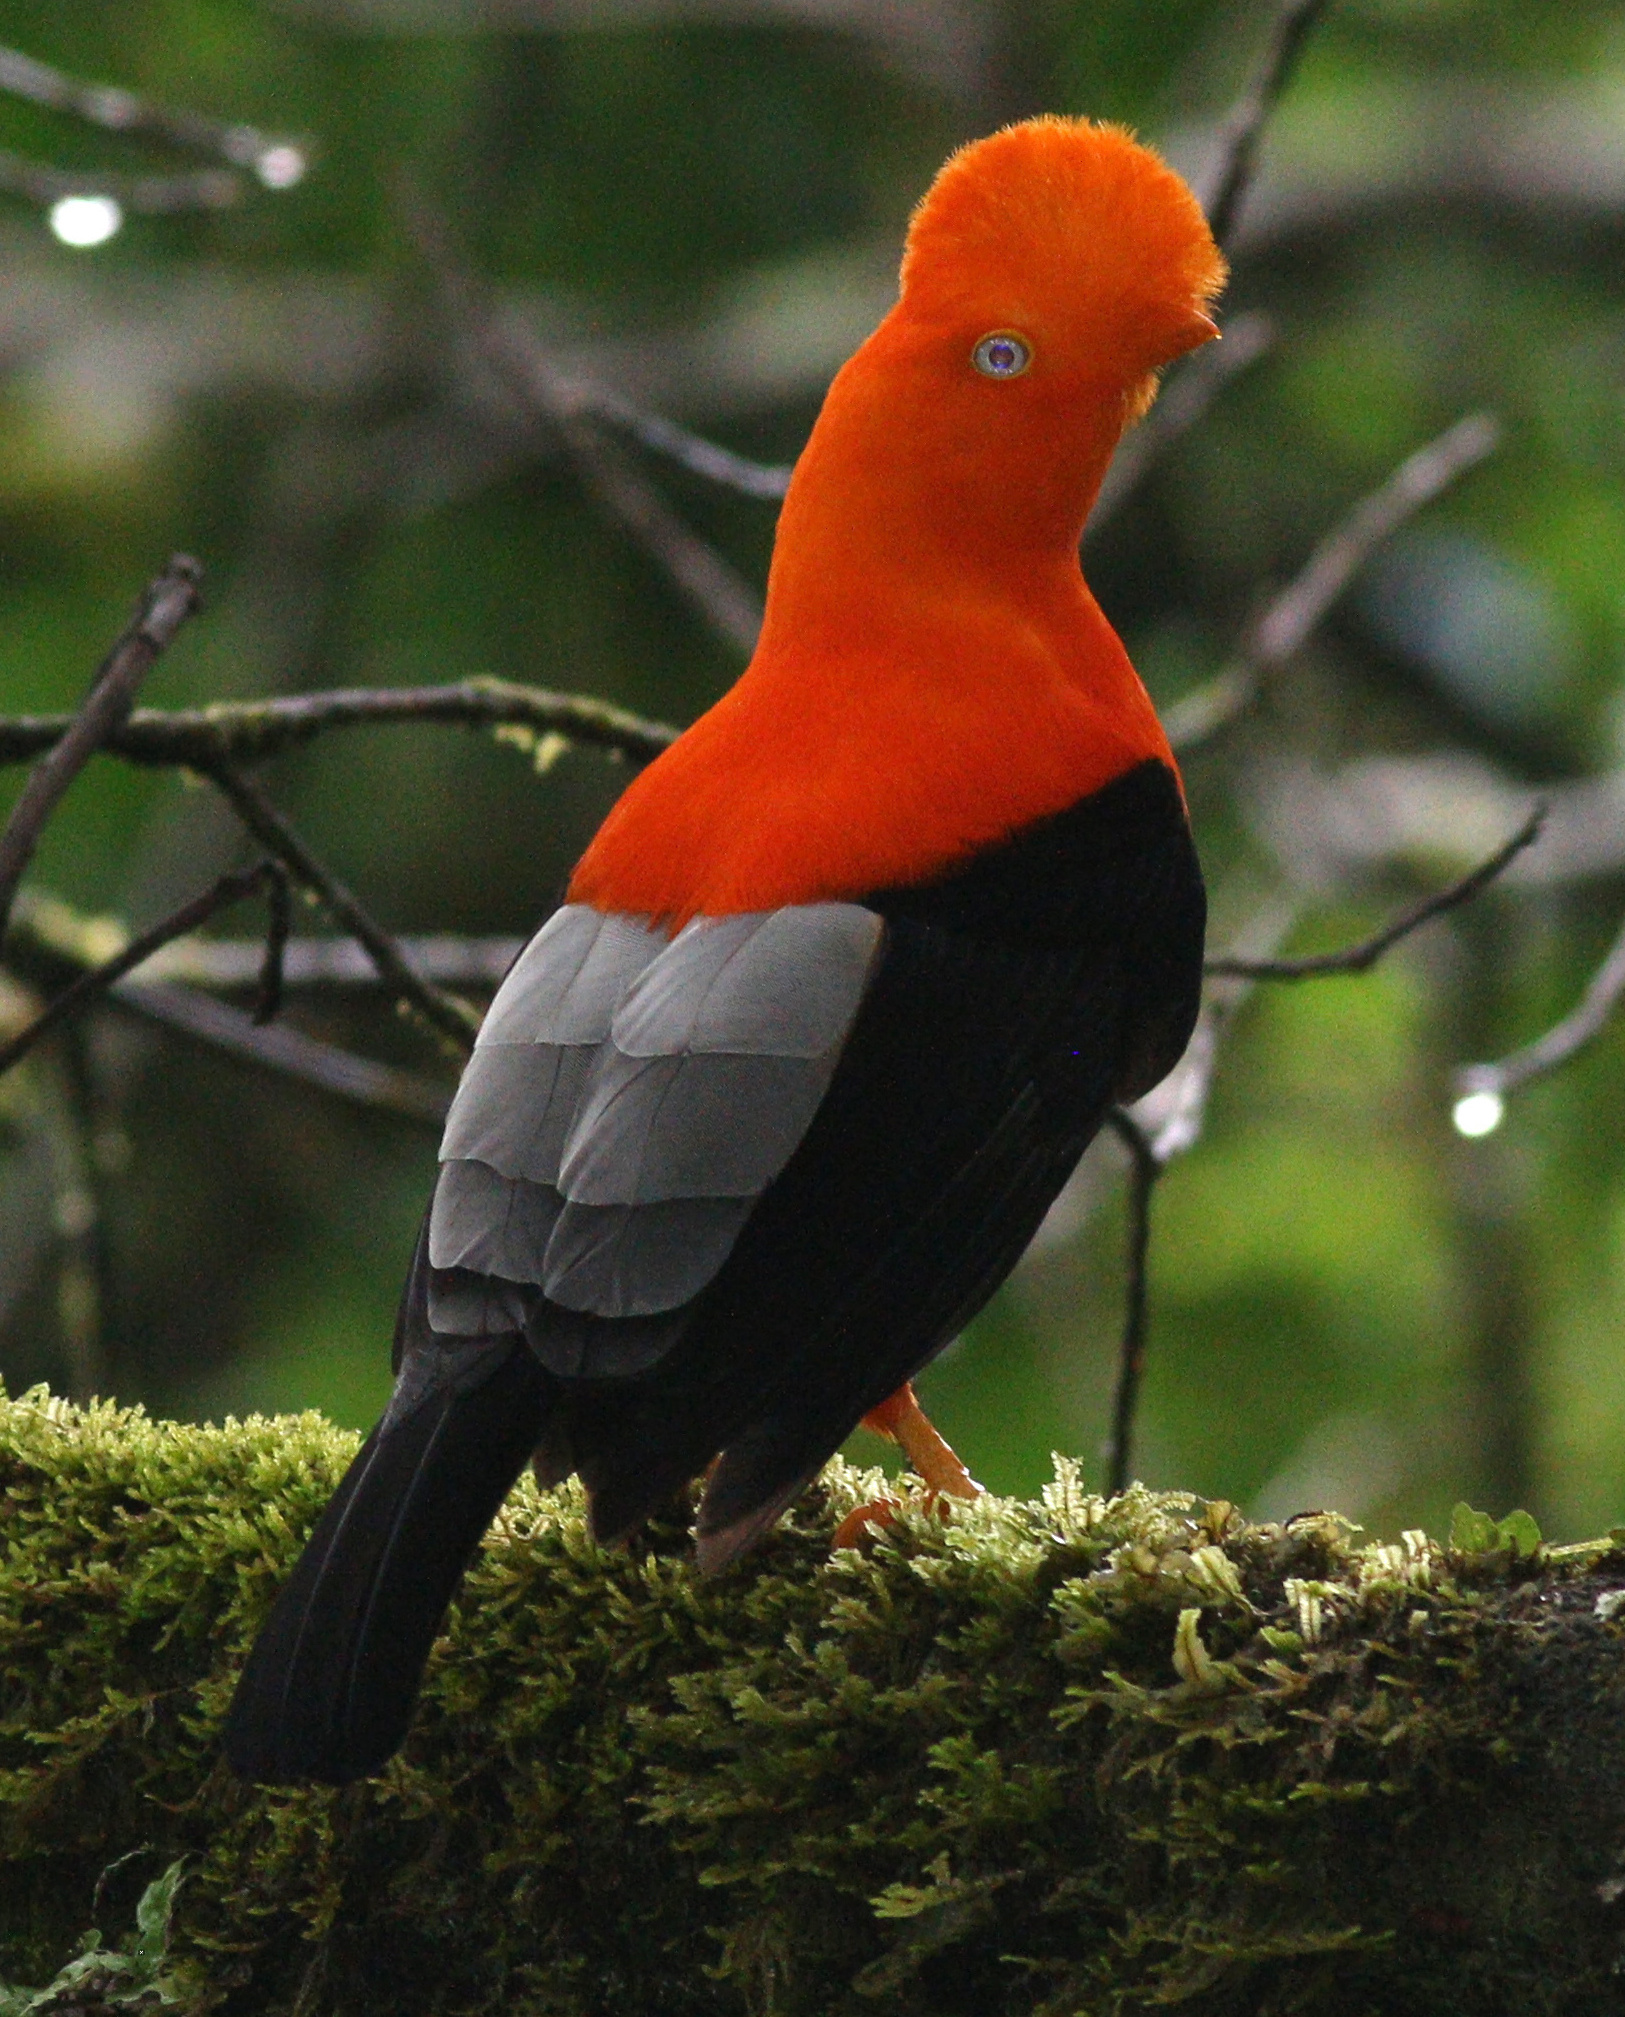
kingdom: Animalia
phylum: Chordata
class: Aves
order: Passeriformes
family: Cotingidae
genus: Rupicola
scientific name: Rupicola peruvianus
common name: Andean cock-of-the-rock
